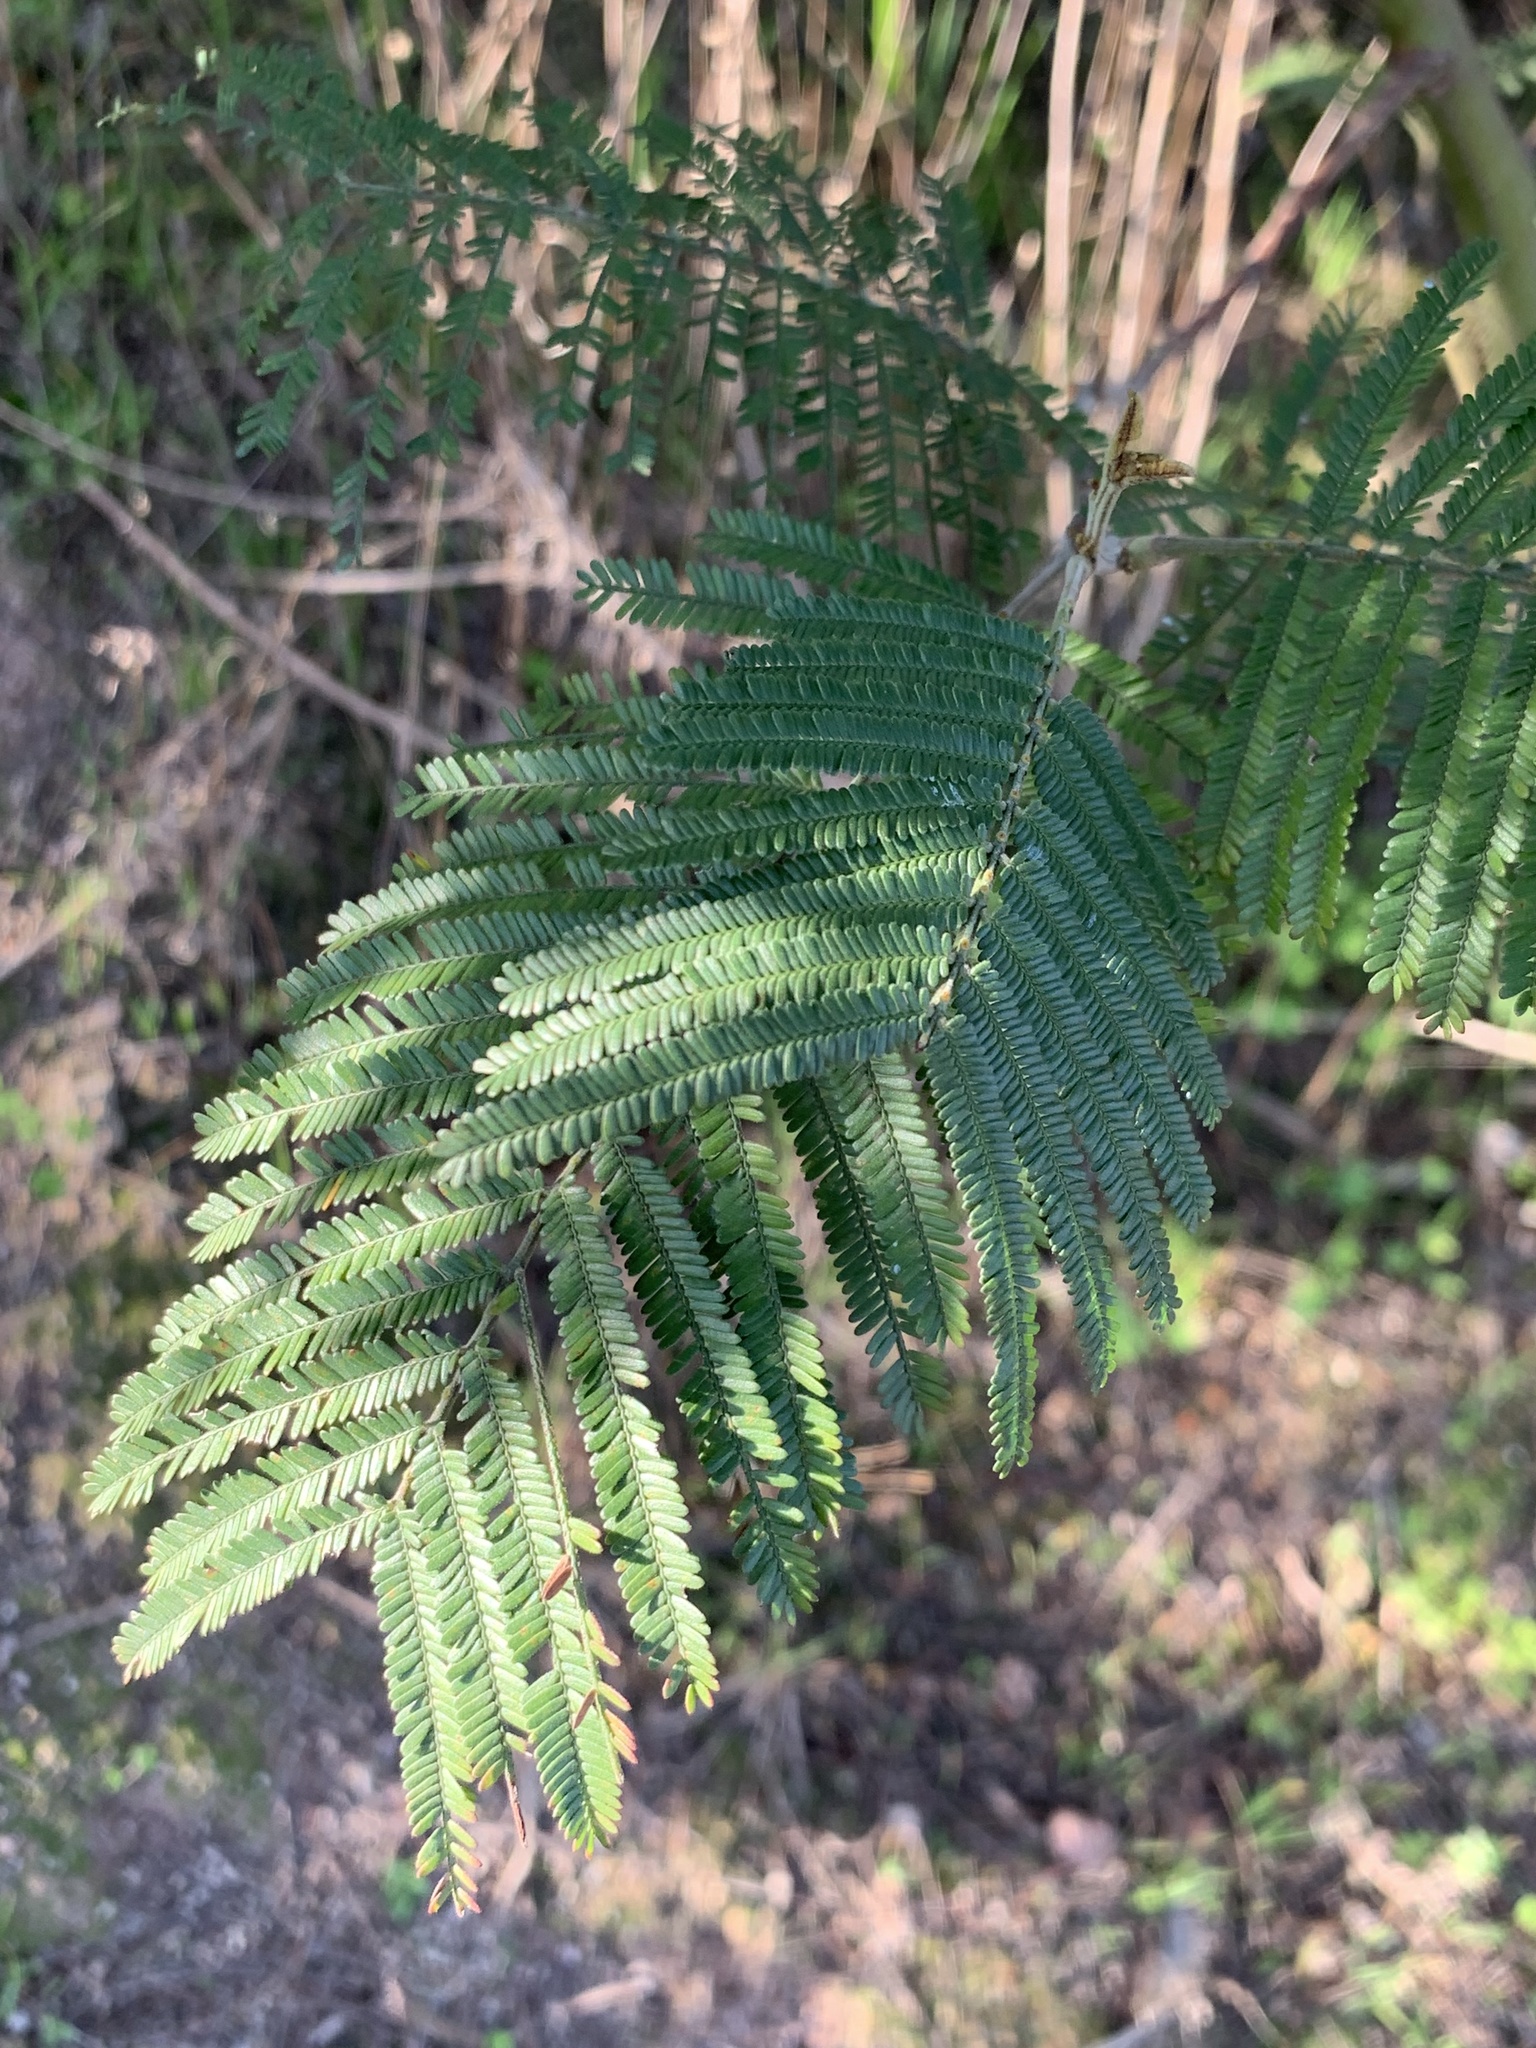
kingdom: Plantae
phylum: Tracheophyta
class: Magnoliopsida
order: Fabales
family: Fabaceae
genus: Acacia
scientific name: Acacia mearnsii
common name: Black wattle
